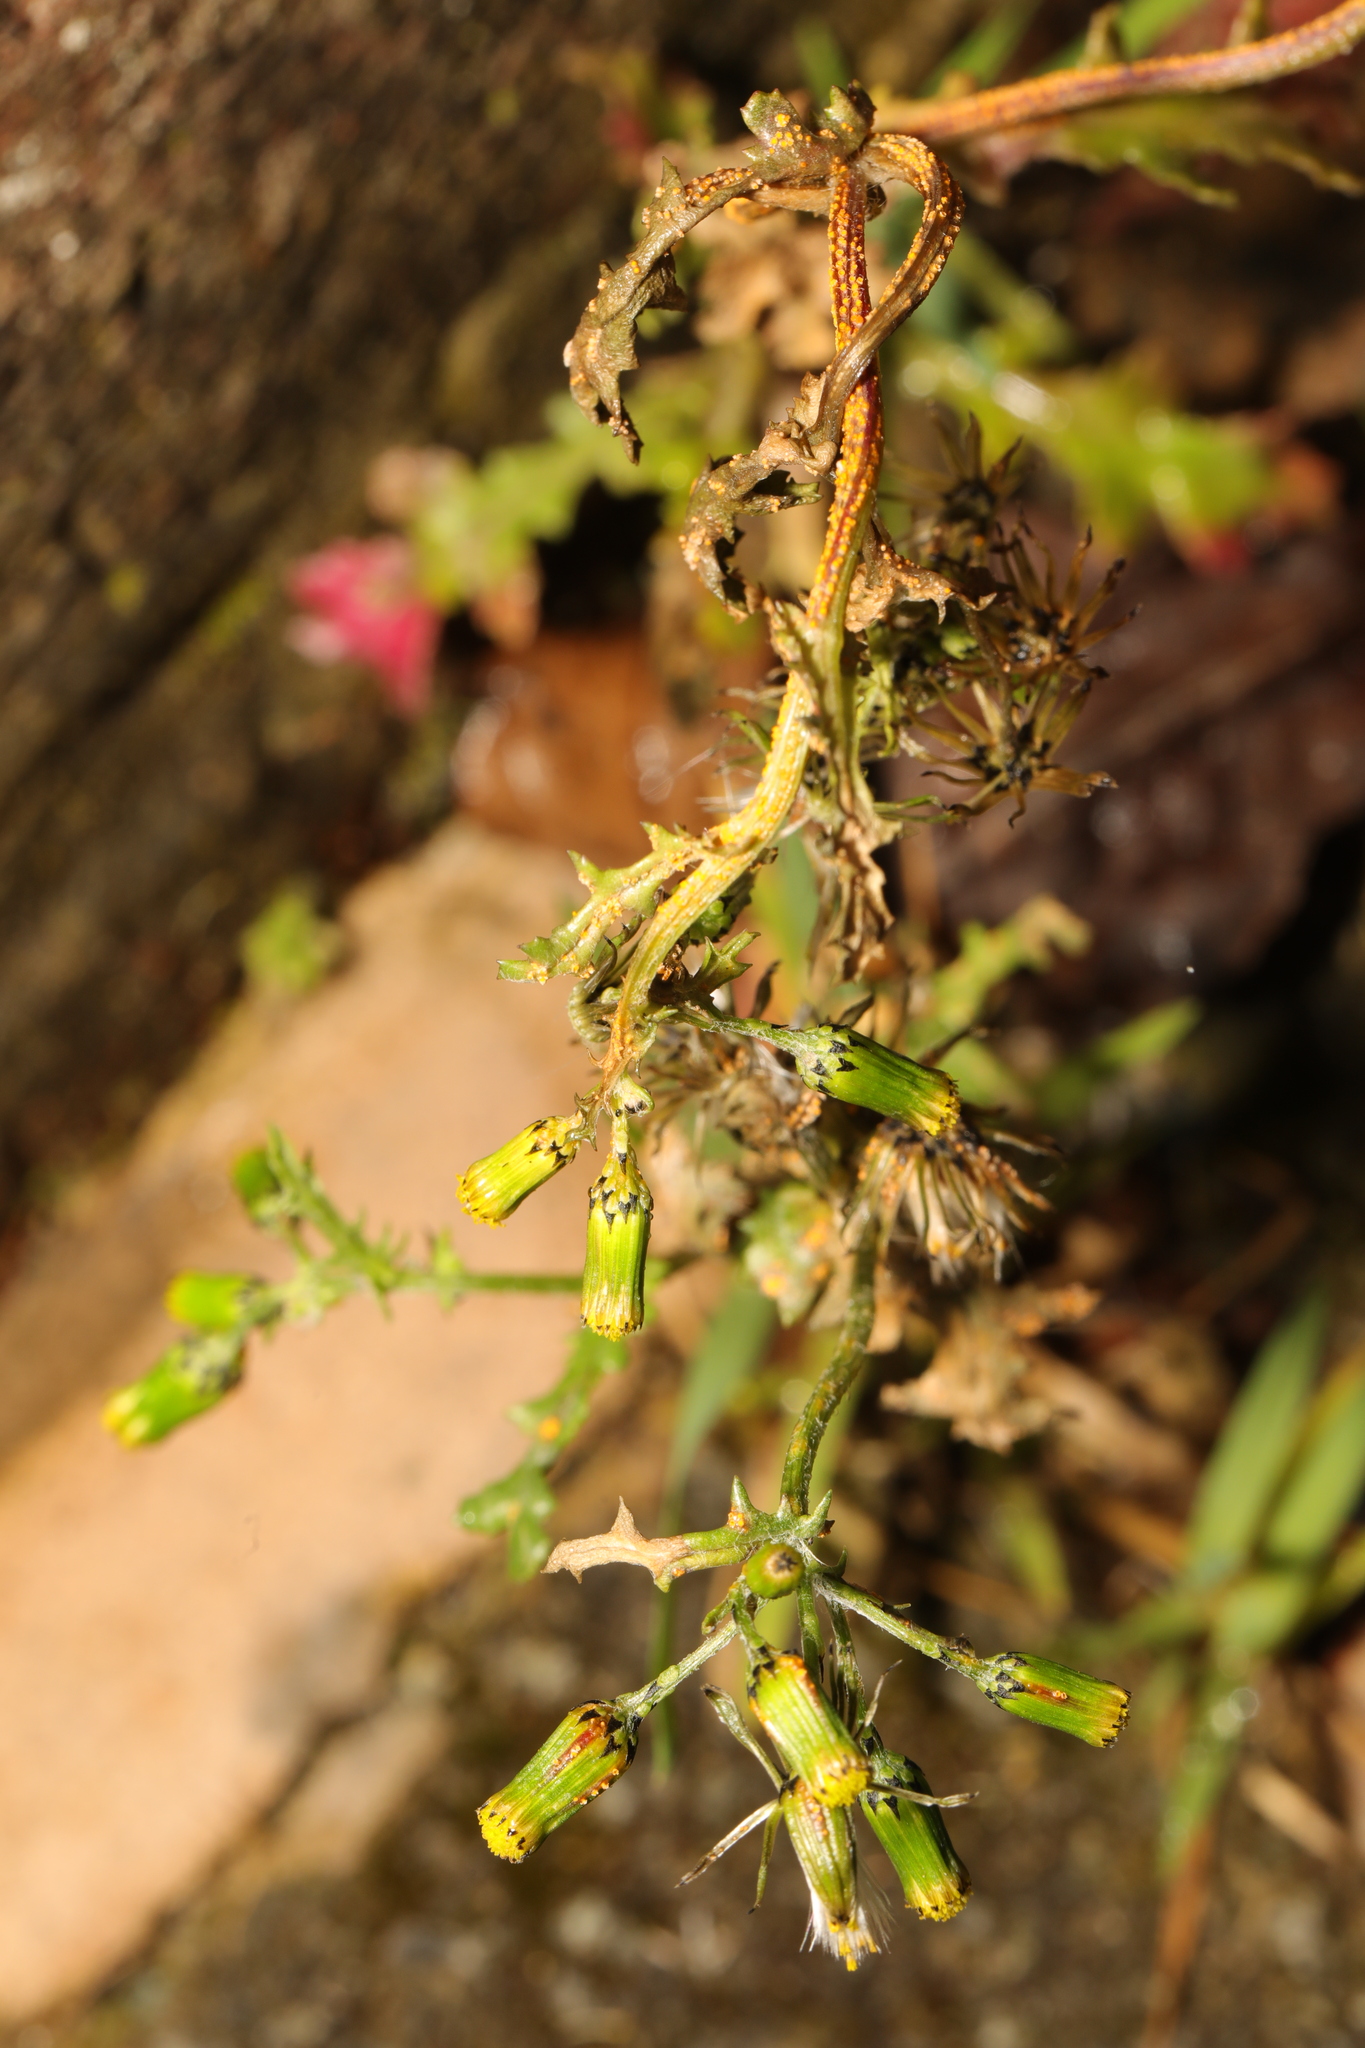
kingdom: Plantae
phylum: Tracheophyta
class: Magnoliopsida
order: Asterales
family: Asteraceae
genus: Senecio
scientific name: Senecio vulgaris
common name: Old-man-in-the-spring
